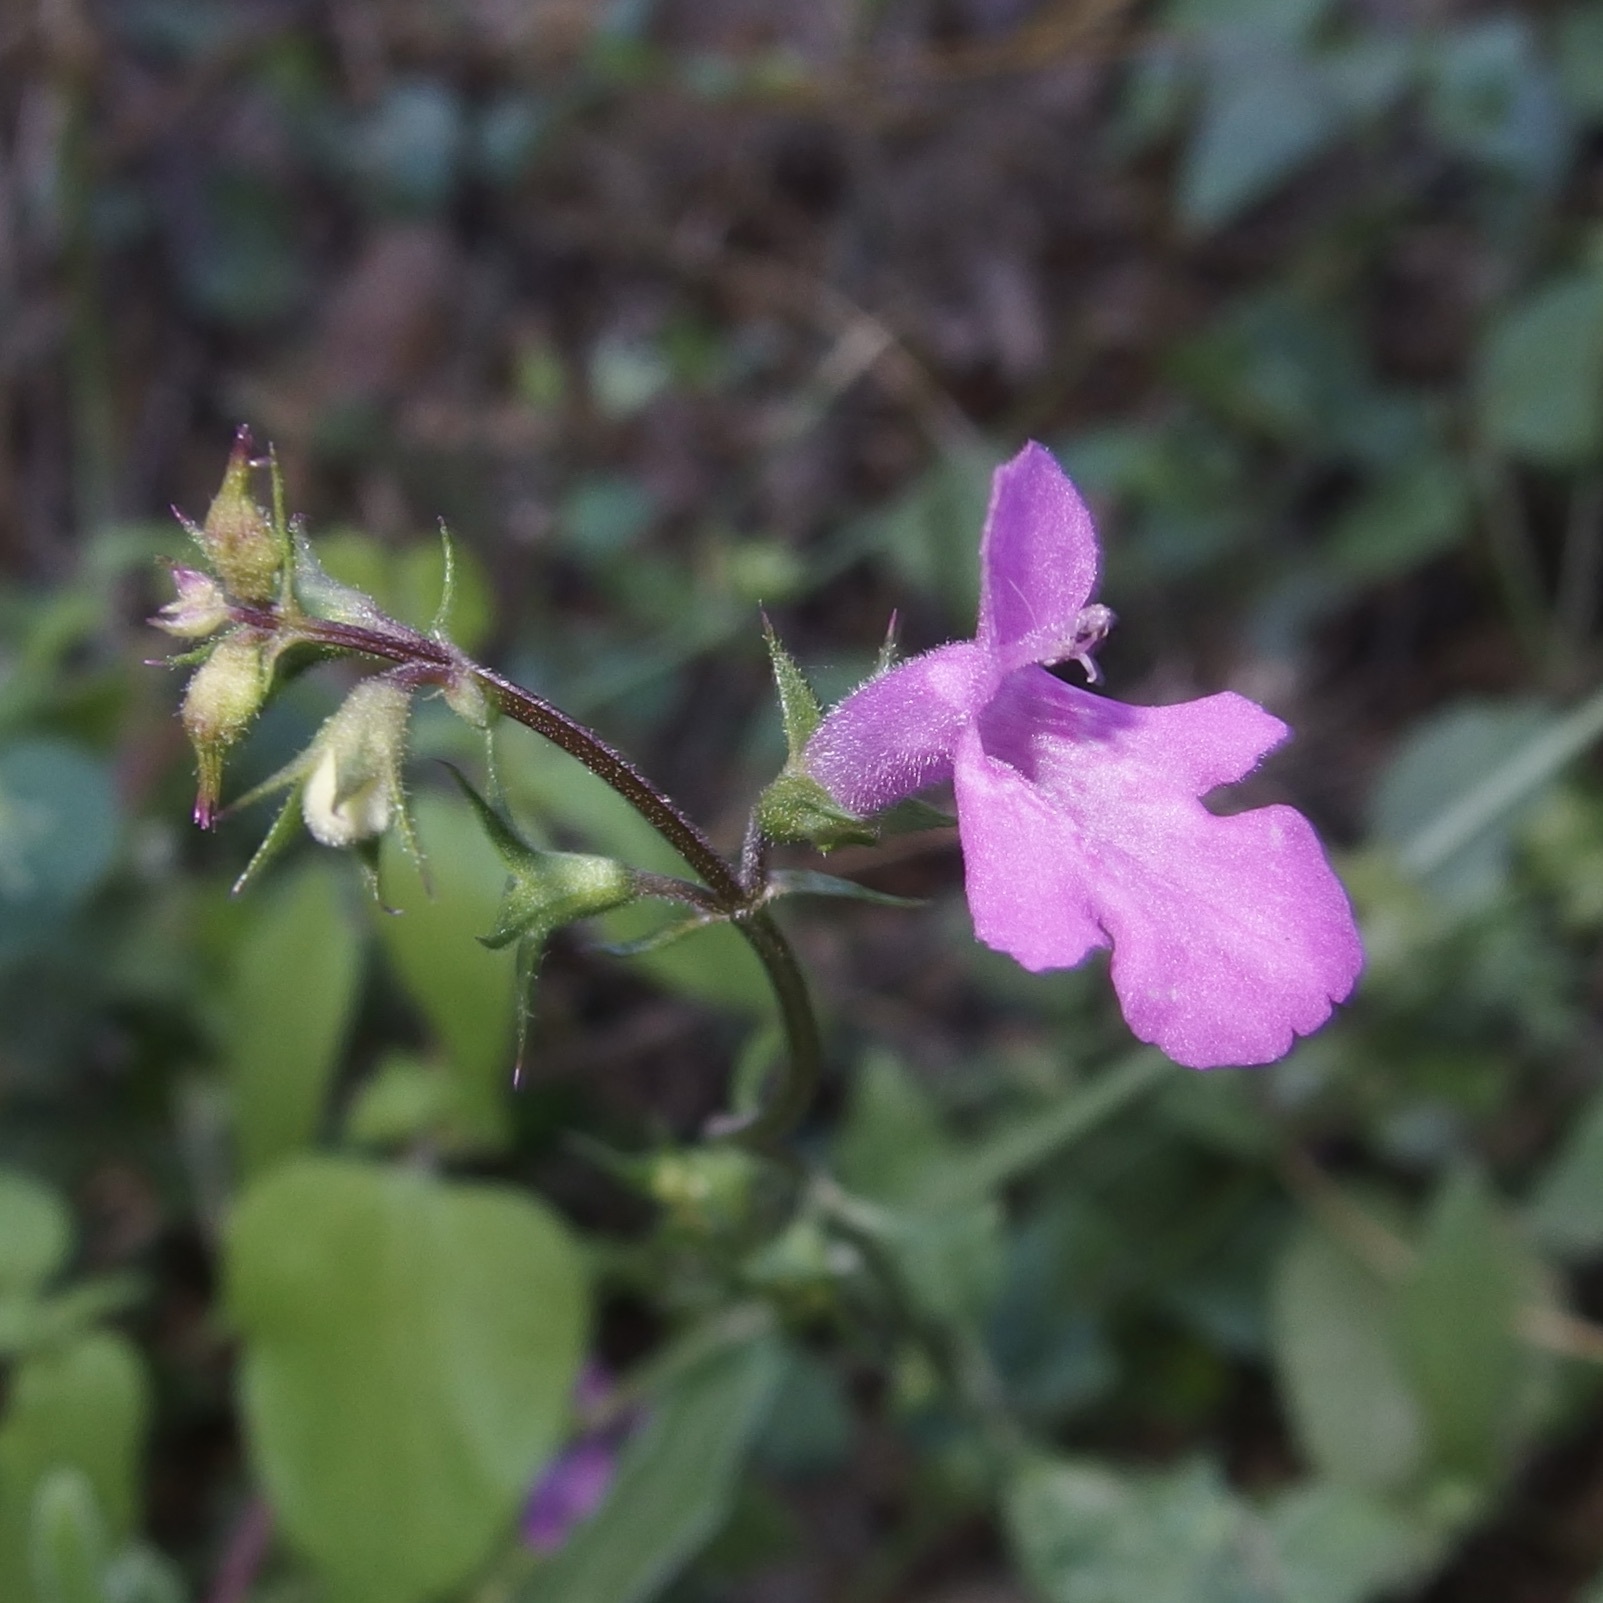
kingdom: Plantae
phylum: Tracheophyta
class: Magnoliopsida
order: Lamiales
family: Lamiaceae
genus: Stachys
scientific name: Stachys tenerrima
